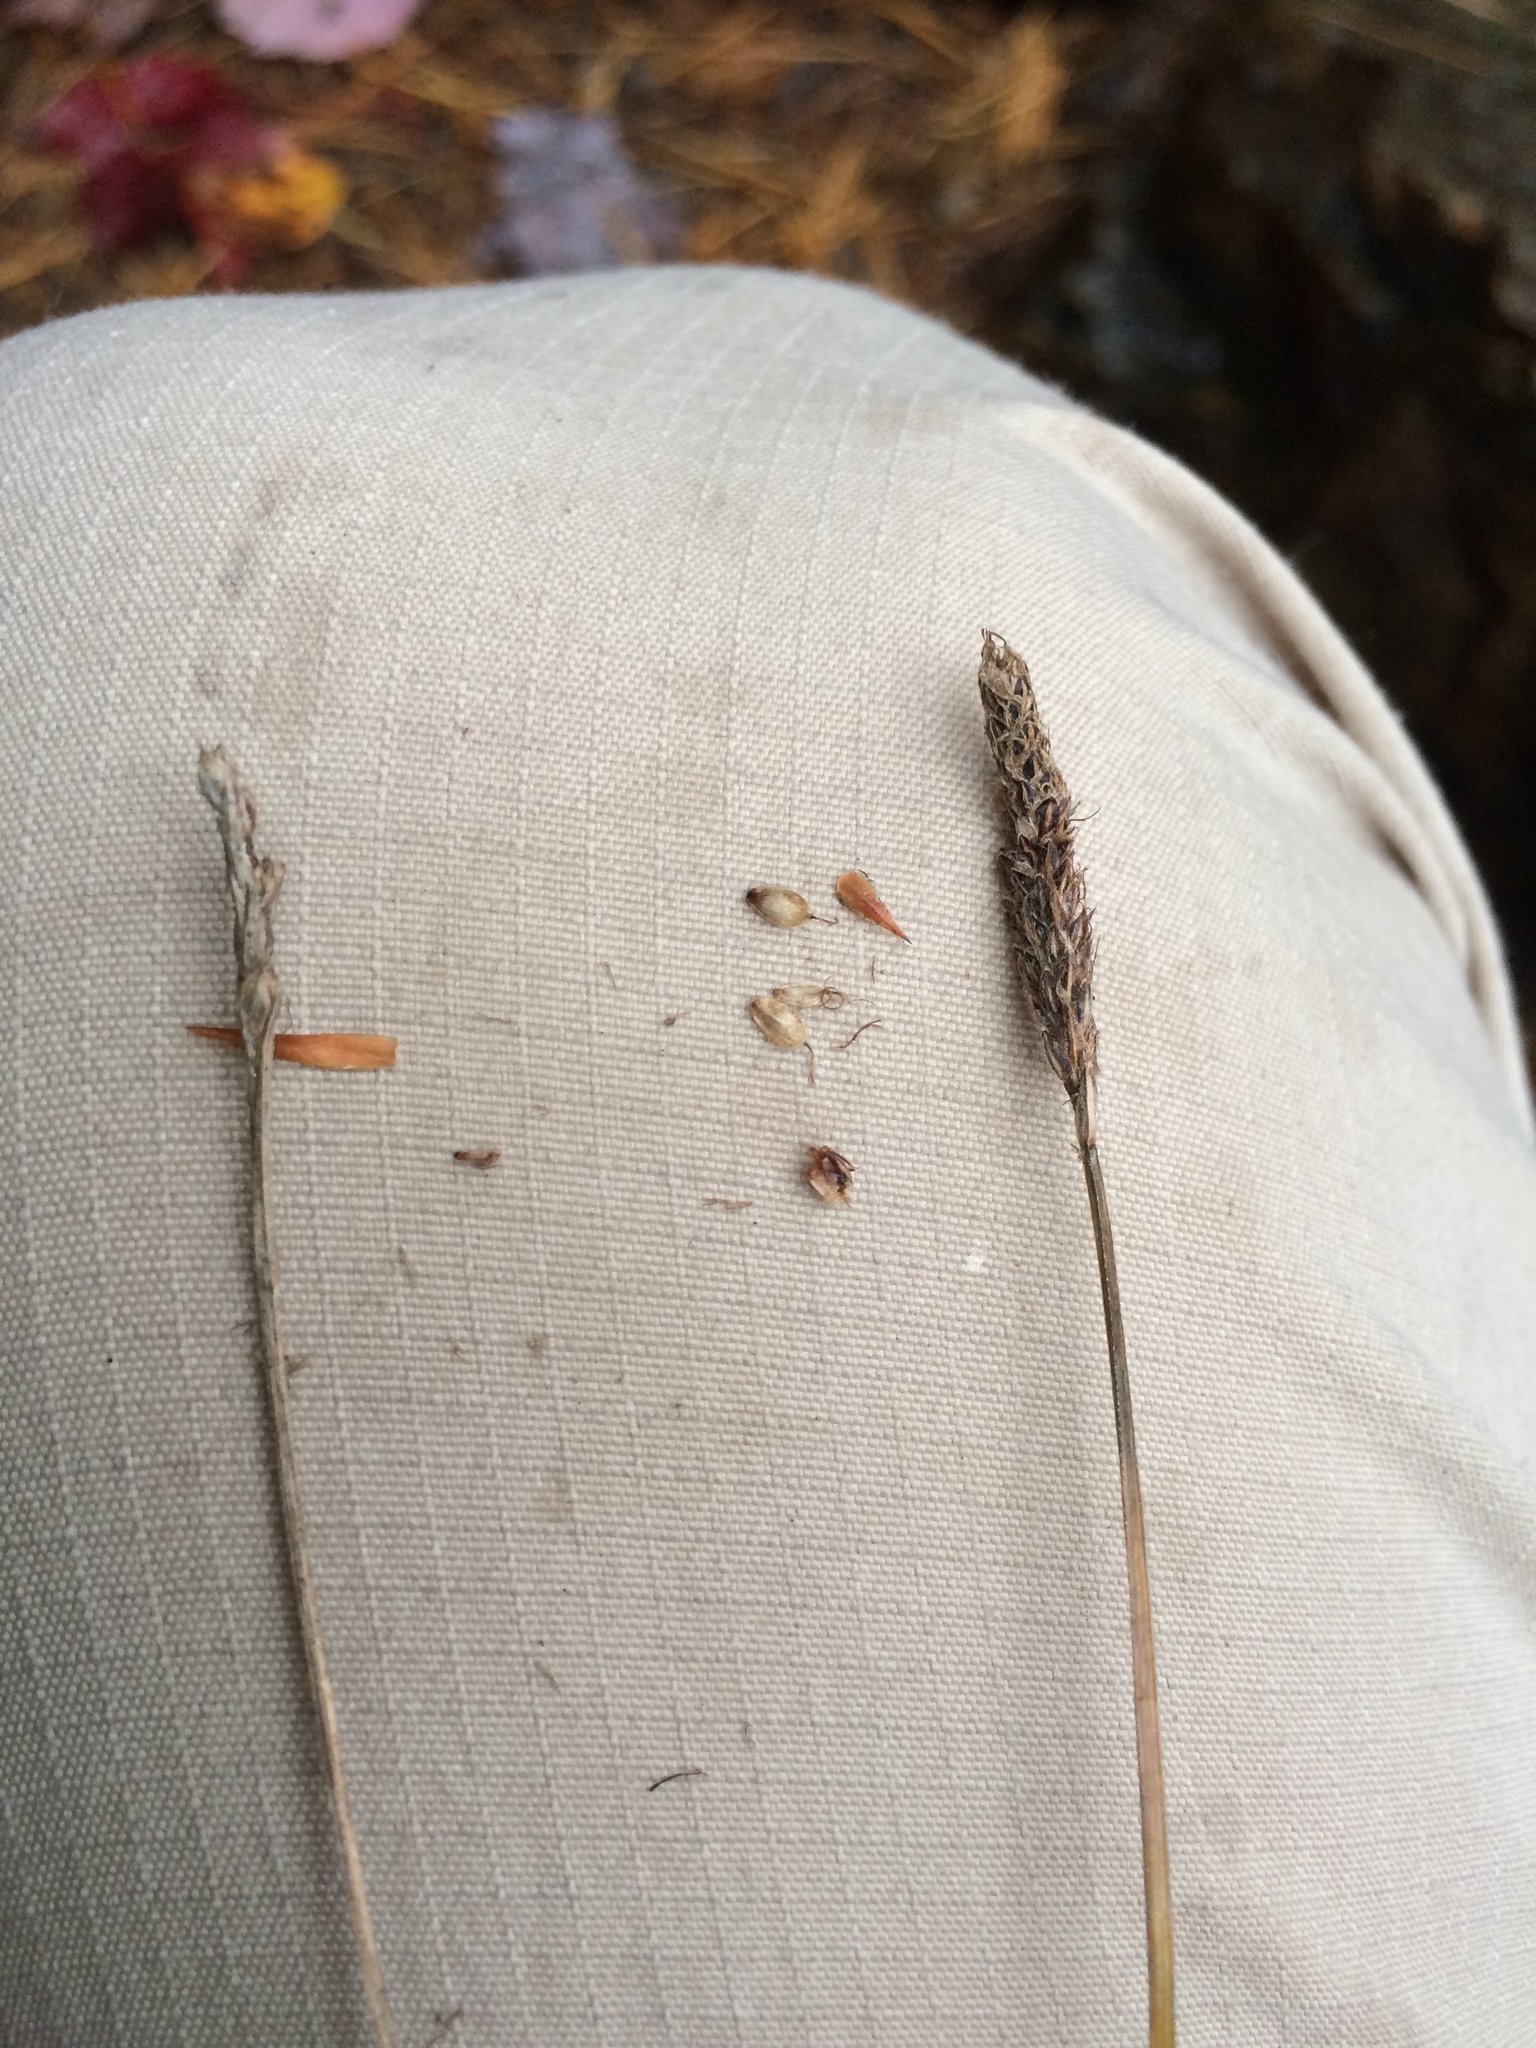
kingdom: Plantae
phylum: Tracheophyta
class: Liliopsida
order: Poales
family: Cyperaceae
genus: Carex
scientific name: Carex scirpoidea
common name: Canada single-spike sedge
